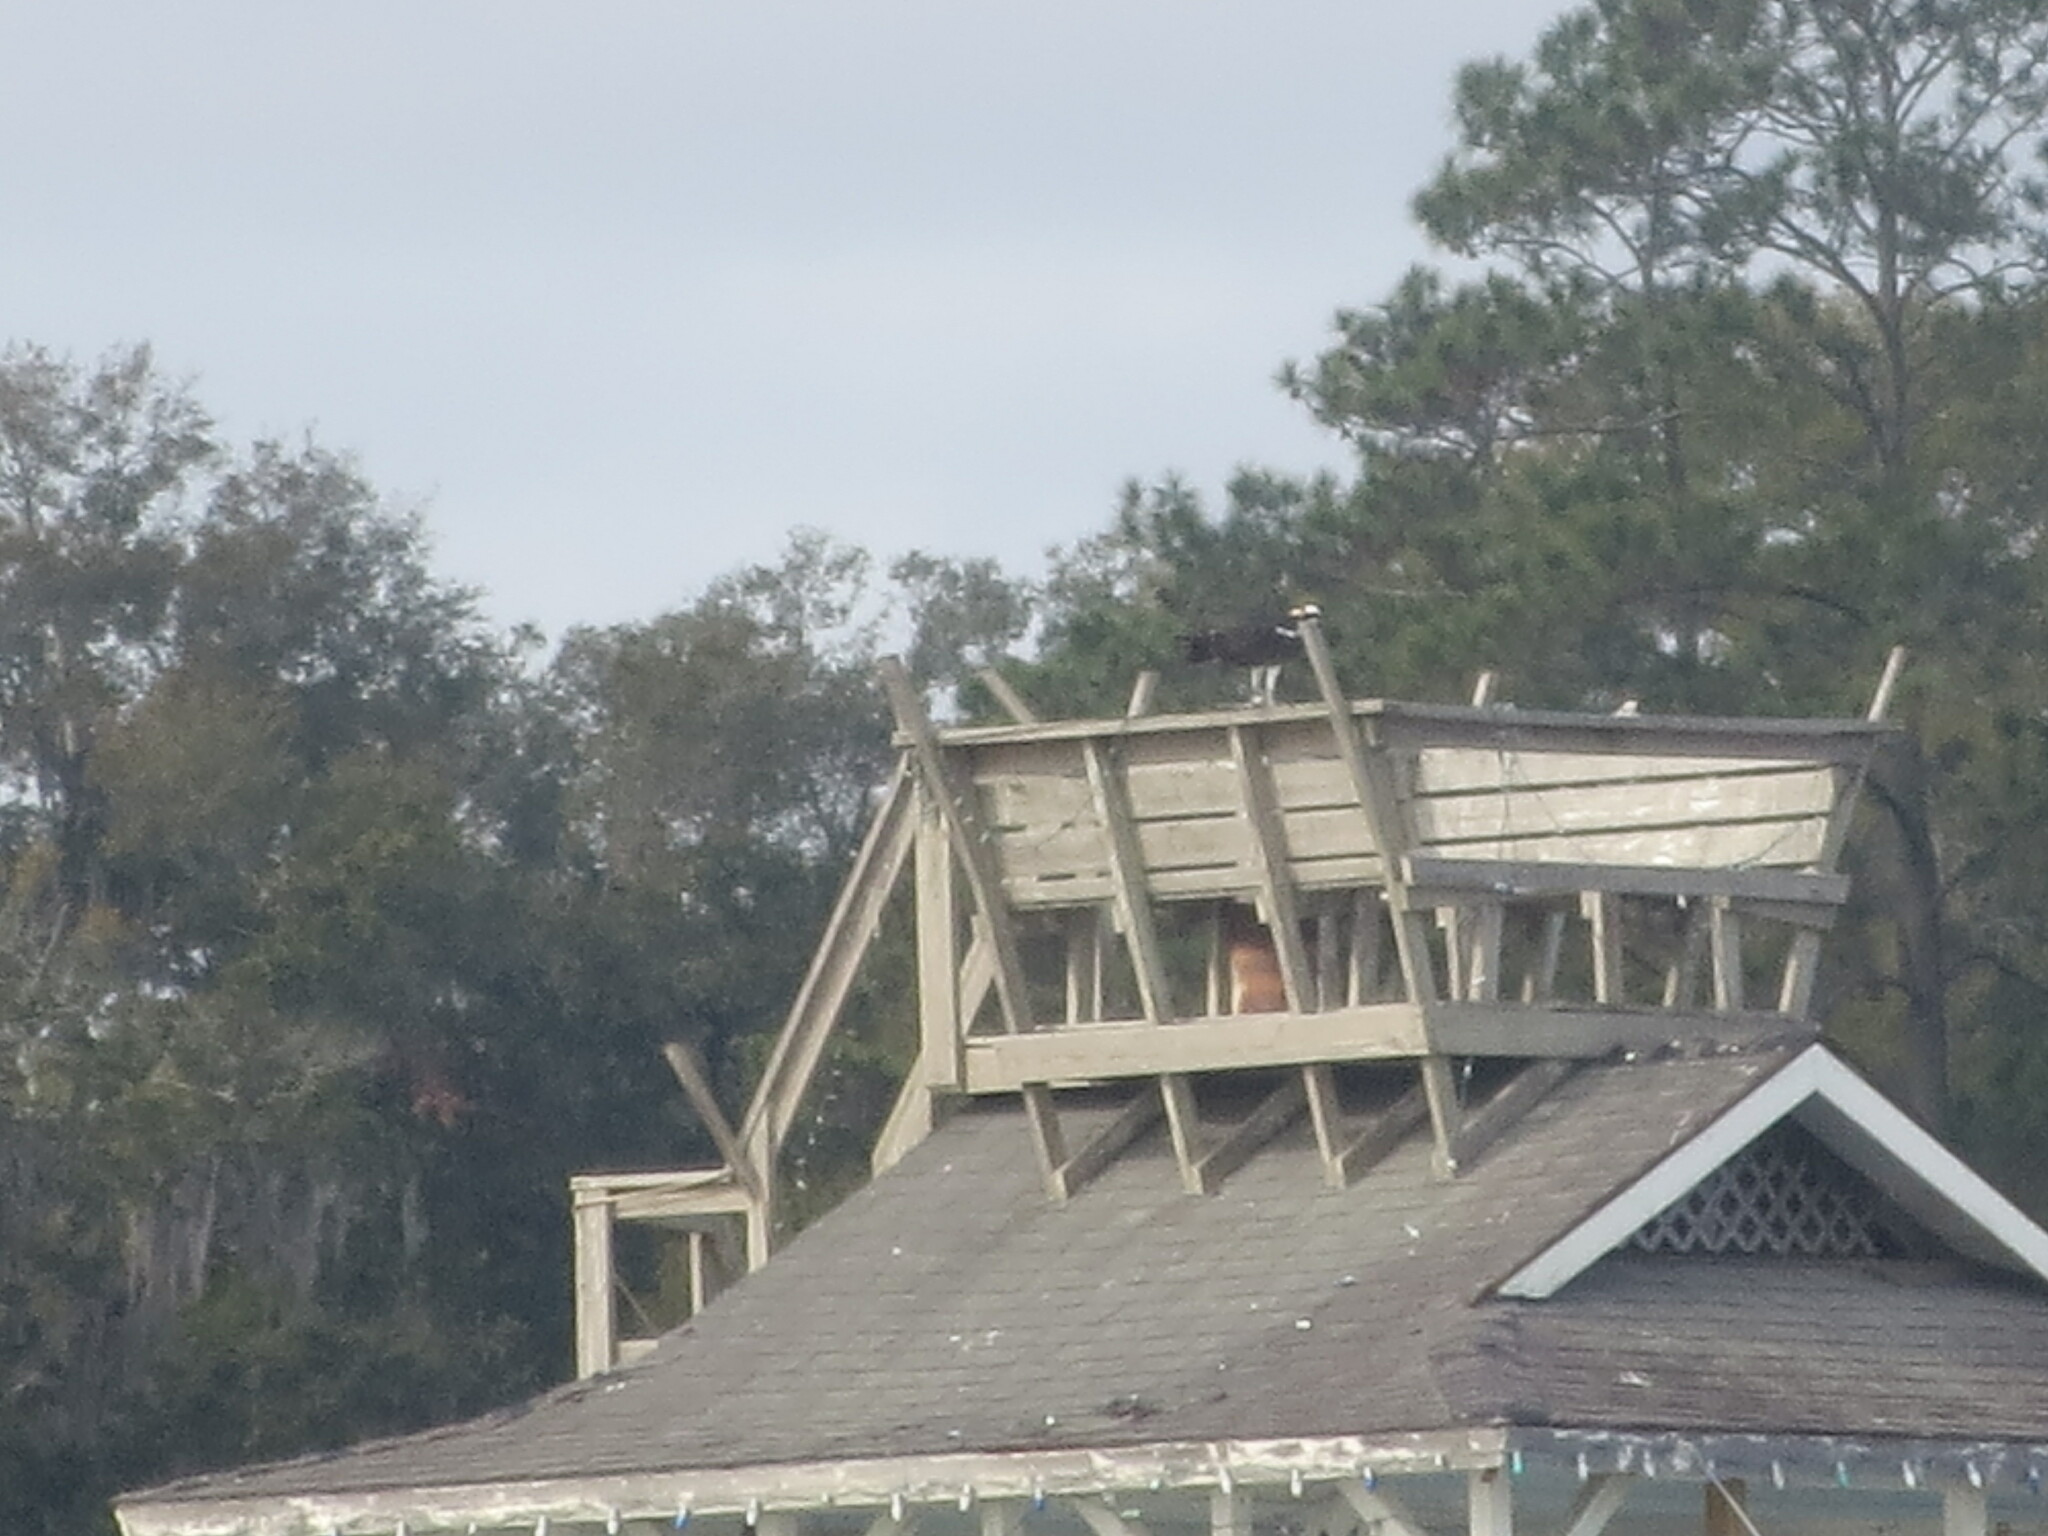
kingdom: Animalia
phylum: Chordata
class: Aves
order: Accipitriformes
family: Pandionidae
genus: Pandion
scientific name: Pandion haliaetus
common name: Osprey
